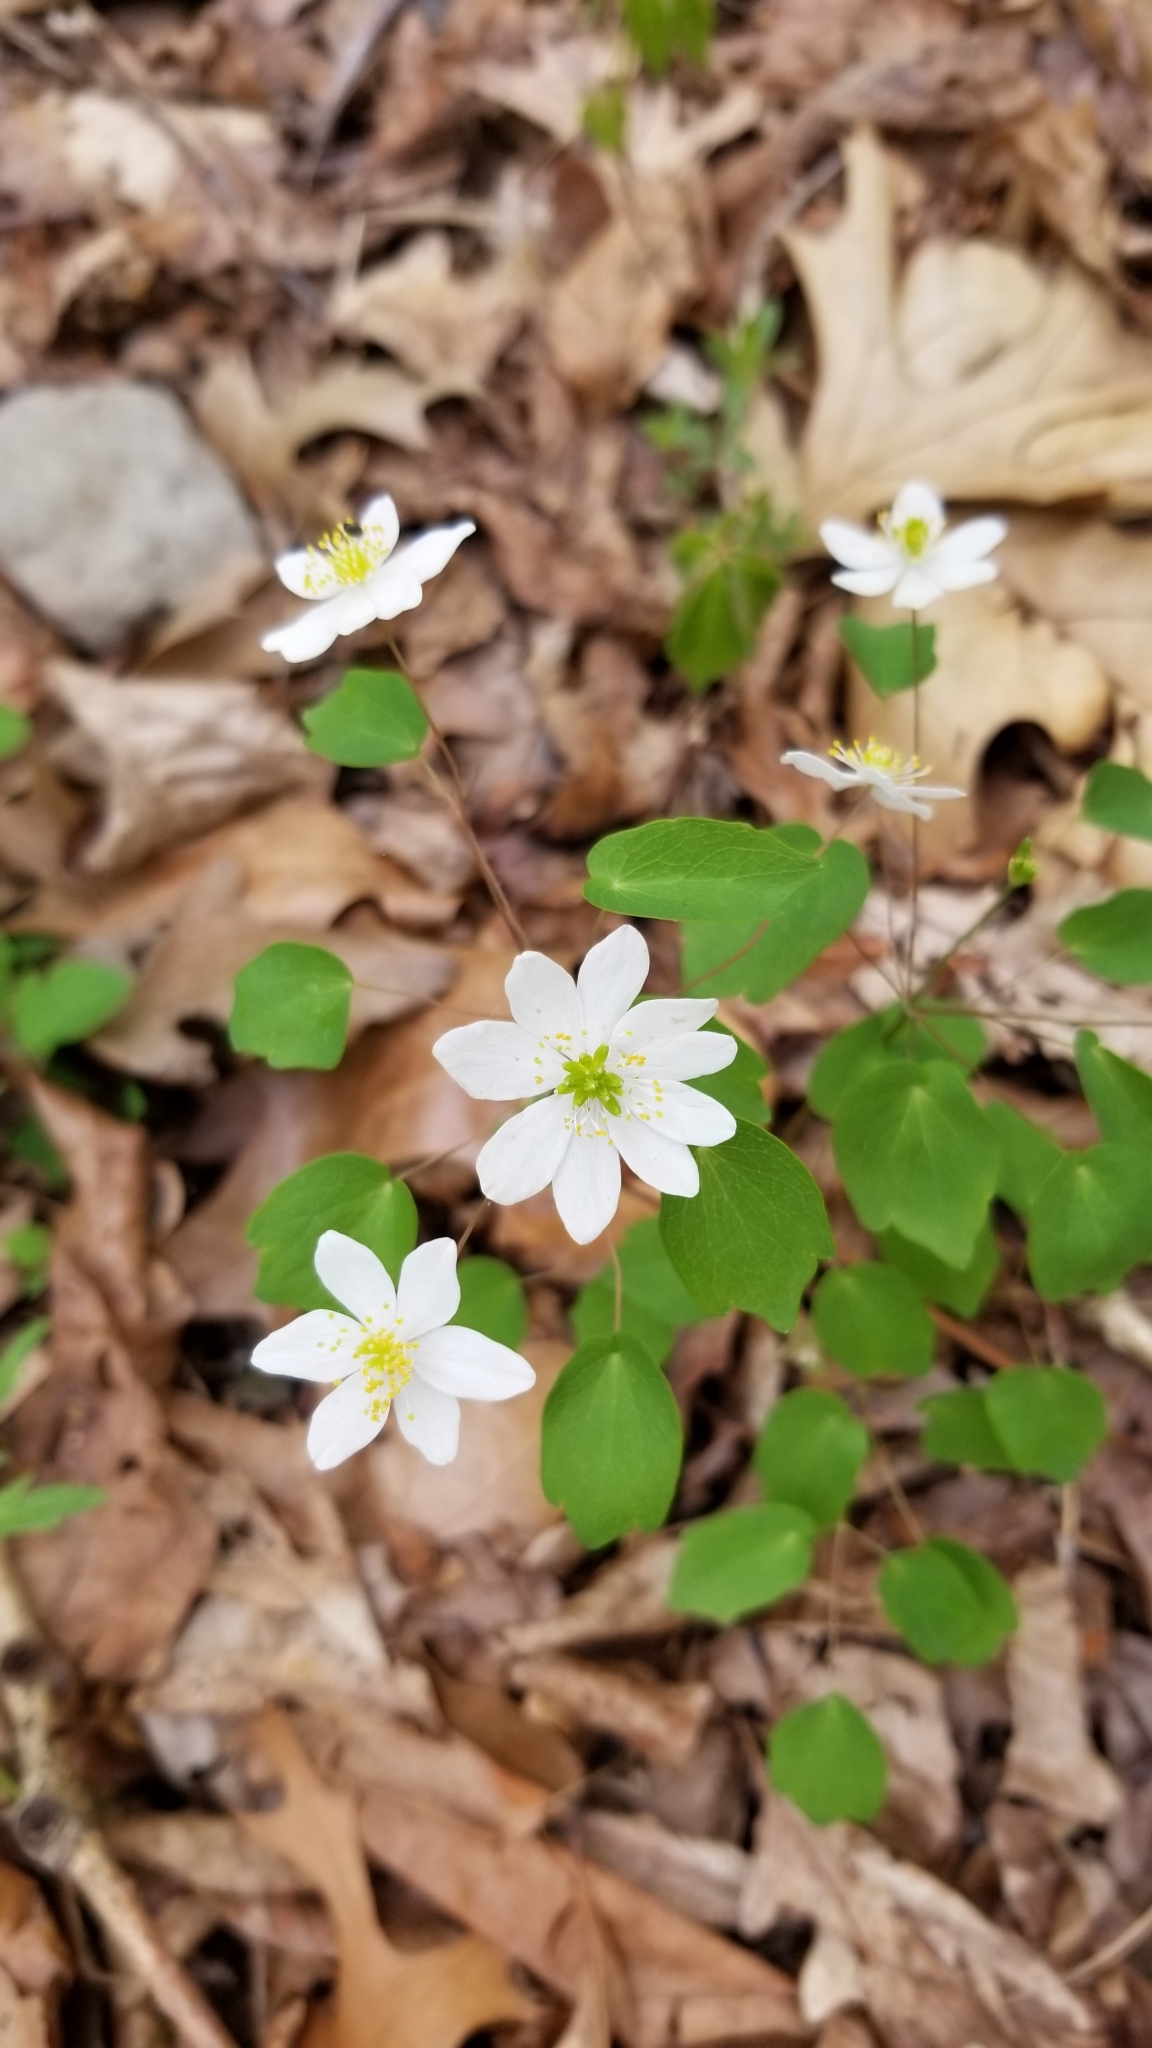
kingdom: Plantae
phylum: Tracheophyta
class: Magnoliopsida
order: Ranunculales
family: Ranunculaceae
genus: Thalictrum
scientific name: Thalictrum thalictroides
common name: Rue-anemone
